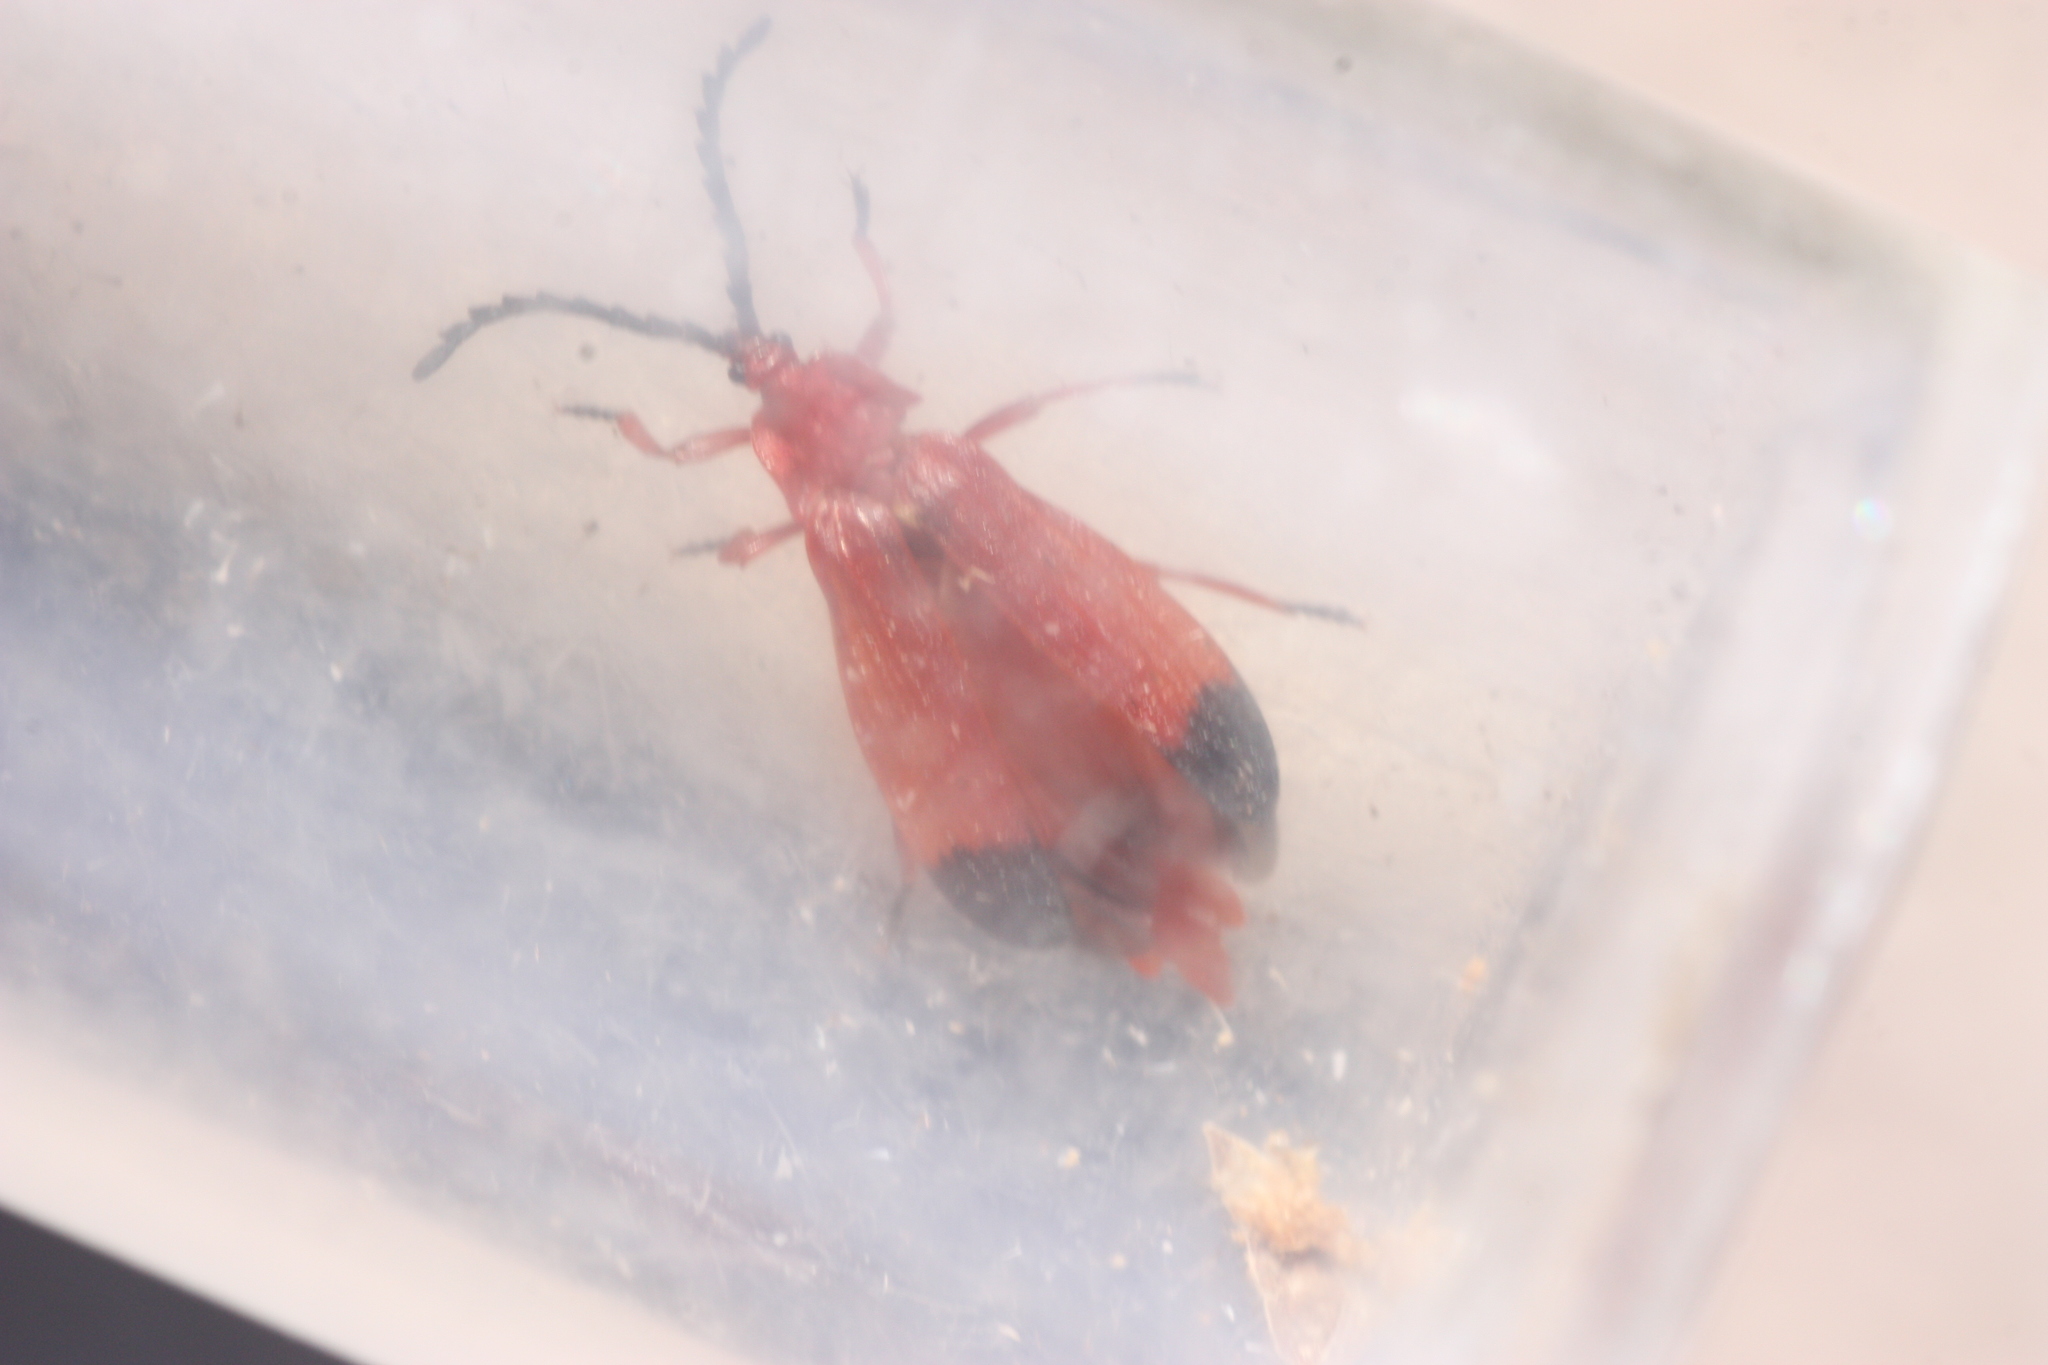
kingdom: Animalia
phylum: Arthropoda
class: Insecta
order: Coleoptera
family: Lycidae
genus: Lycus
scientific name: Lycus sanguineus
